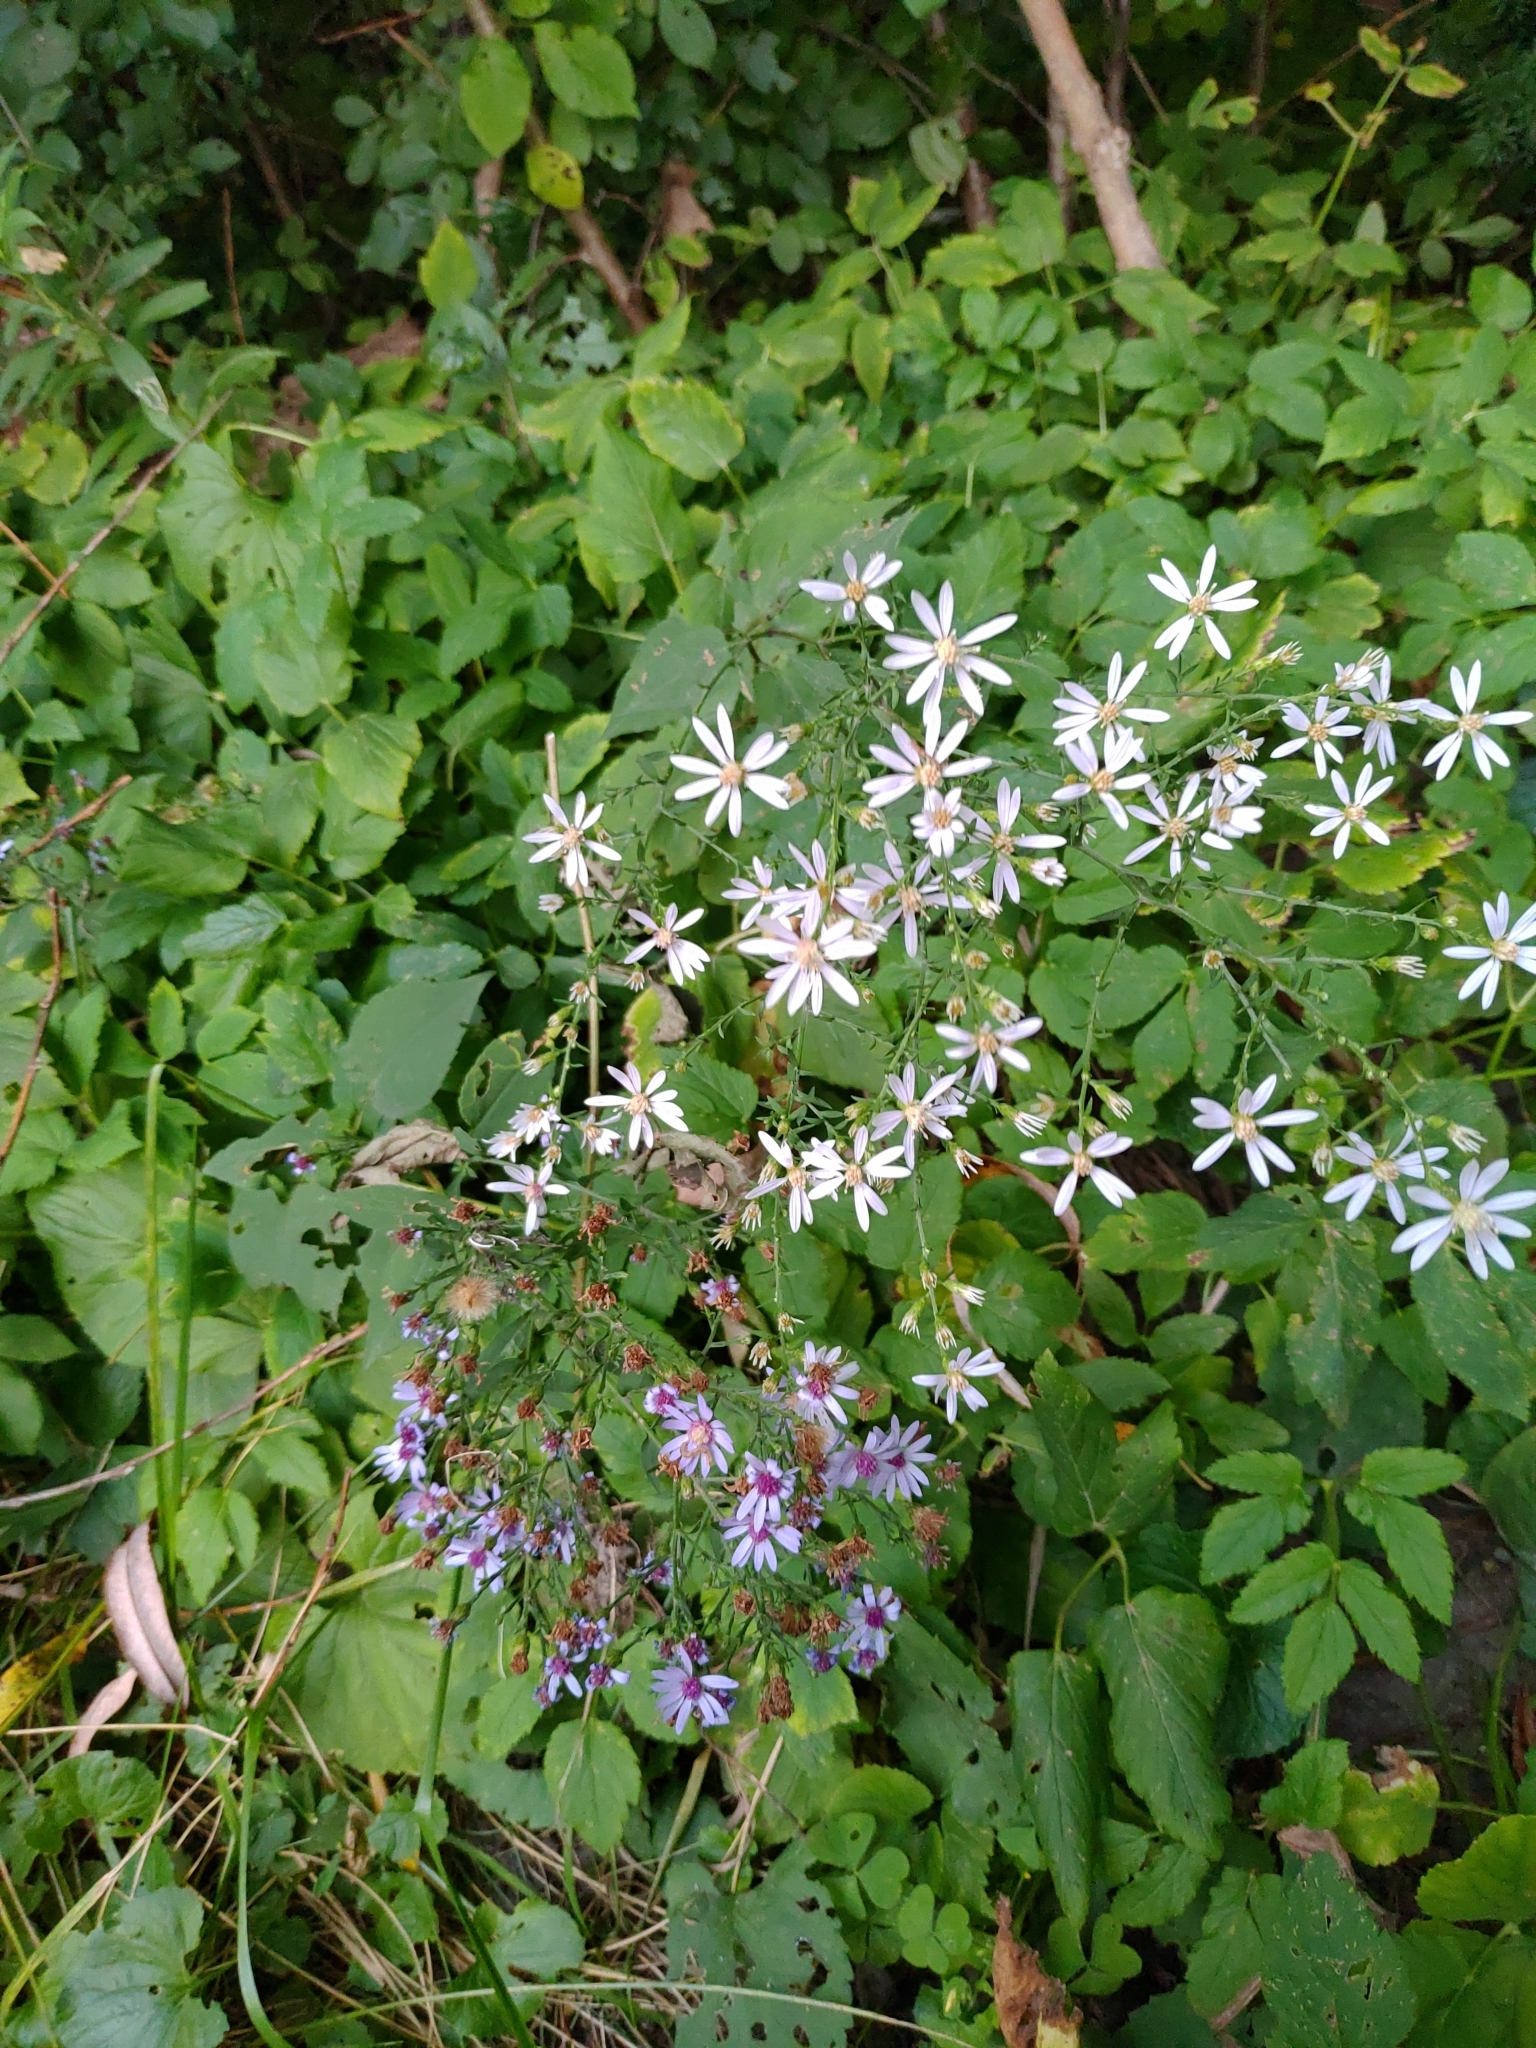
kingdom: Plantae
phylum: Tracheophyta
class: Magnoliopsida
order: Asterales
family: Asteraceae
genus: Symphyotrichum
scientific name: Symphyotrichum cordifolium
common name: Beeweed
